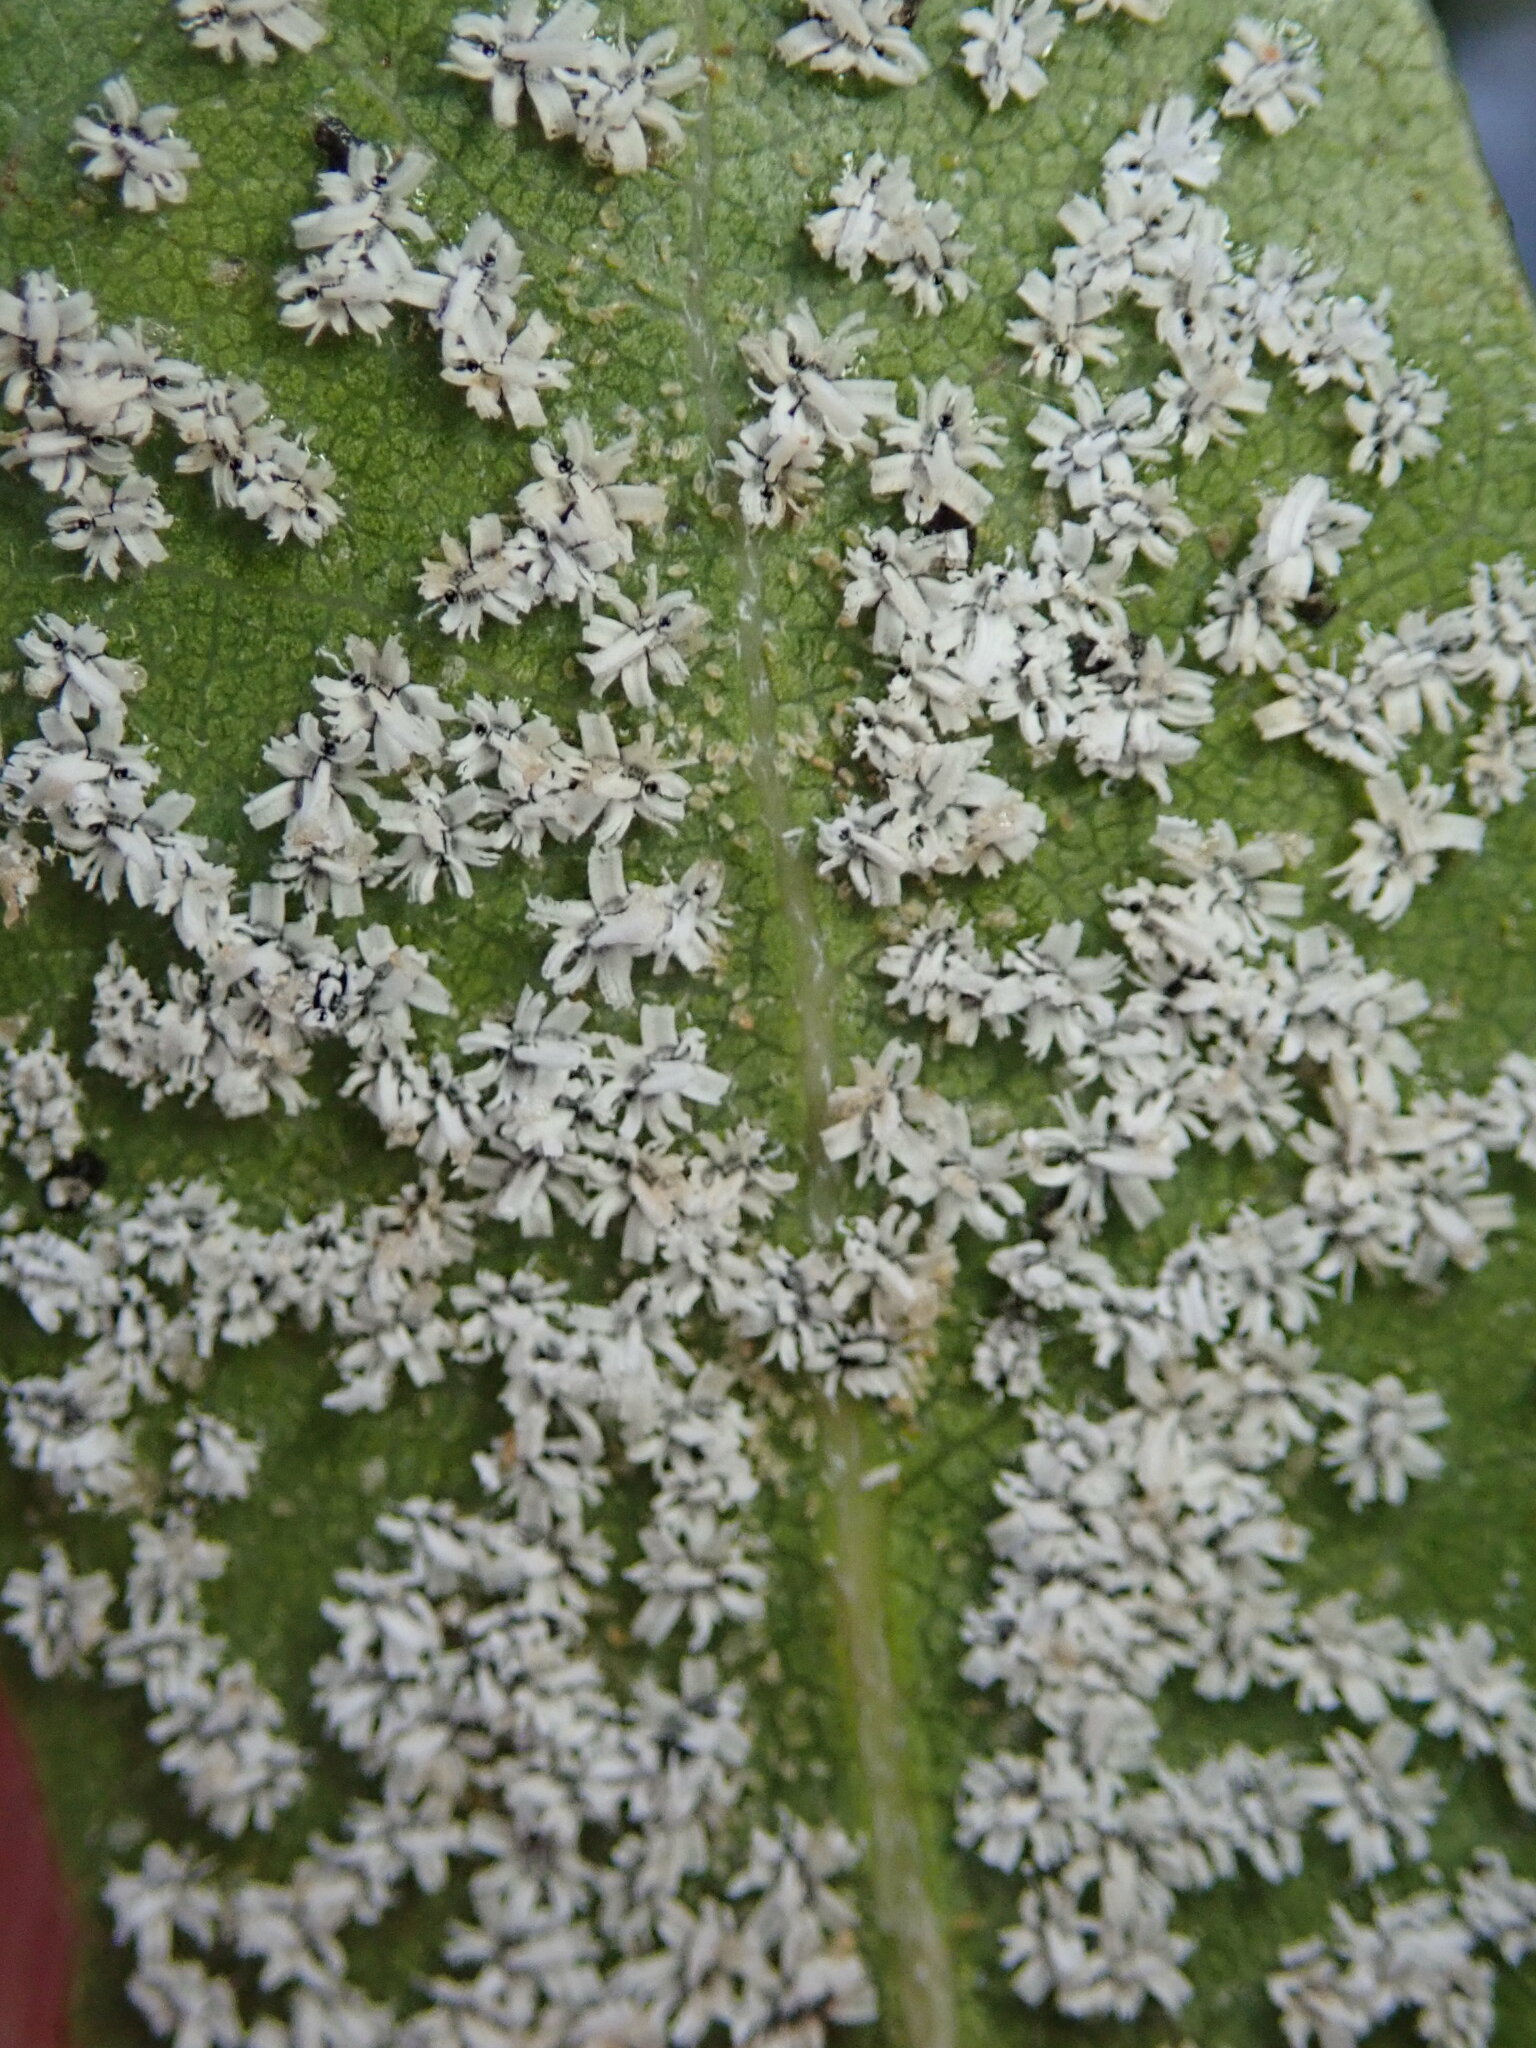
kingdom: Animalia
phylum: Arthropoda
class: Insecta
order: Hemiptera
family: Aleyrodidae
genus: Aleuroplatus
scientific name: Aleuroplatus coronata
